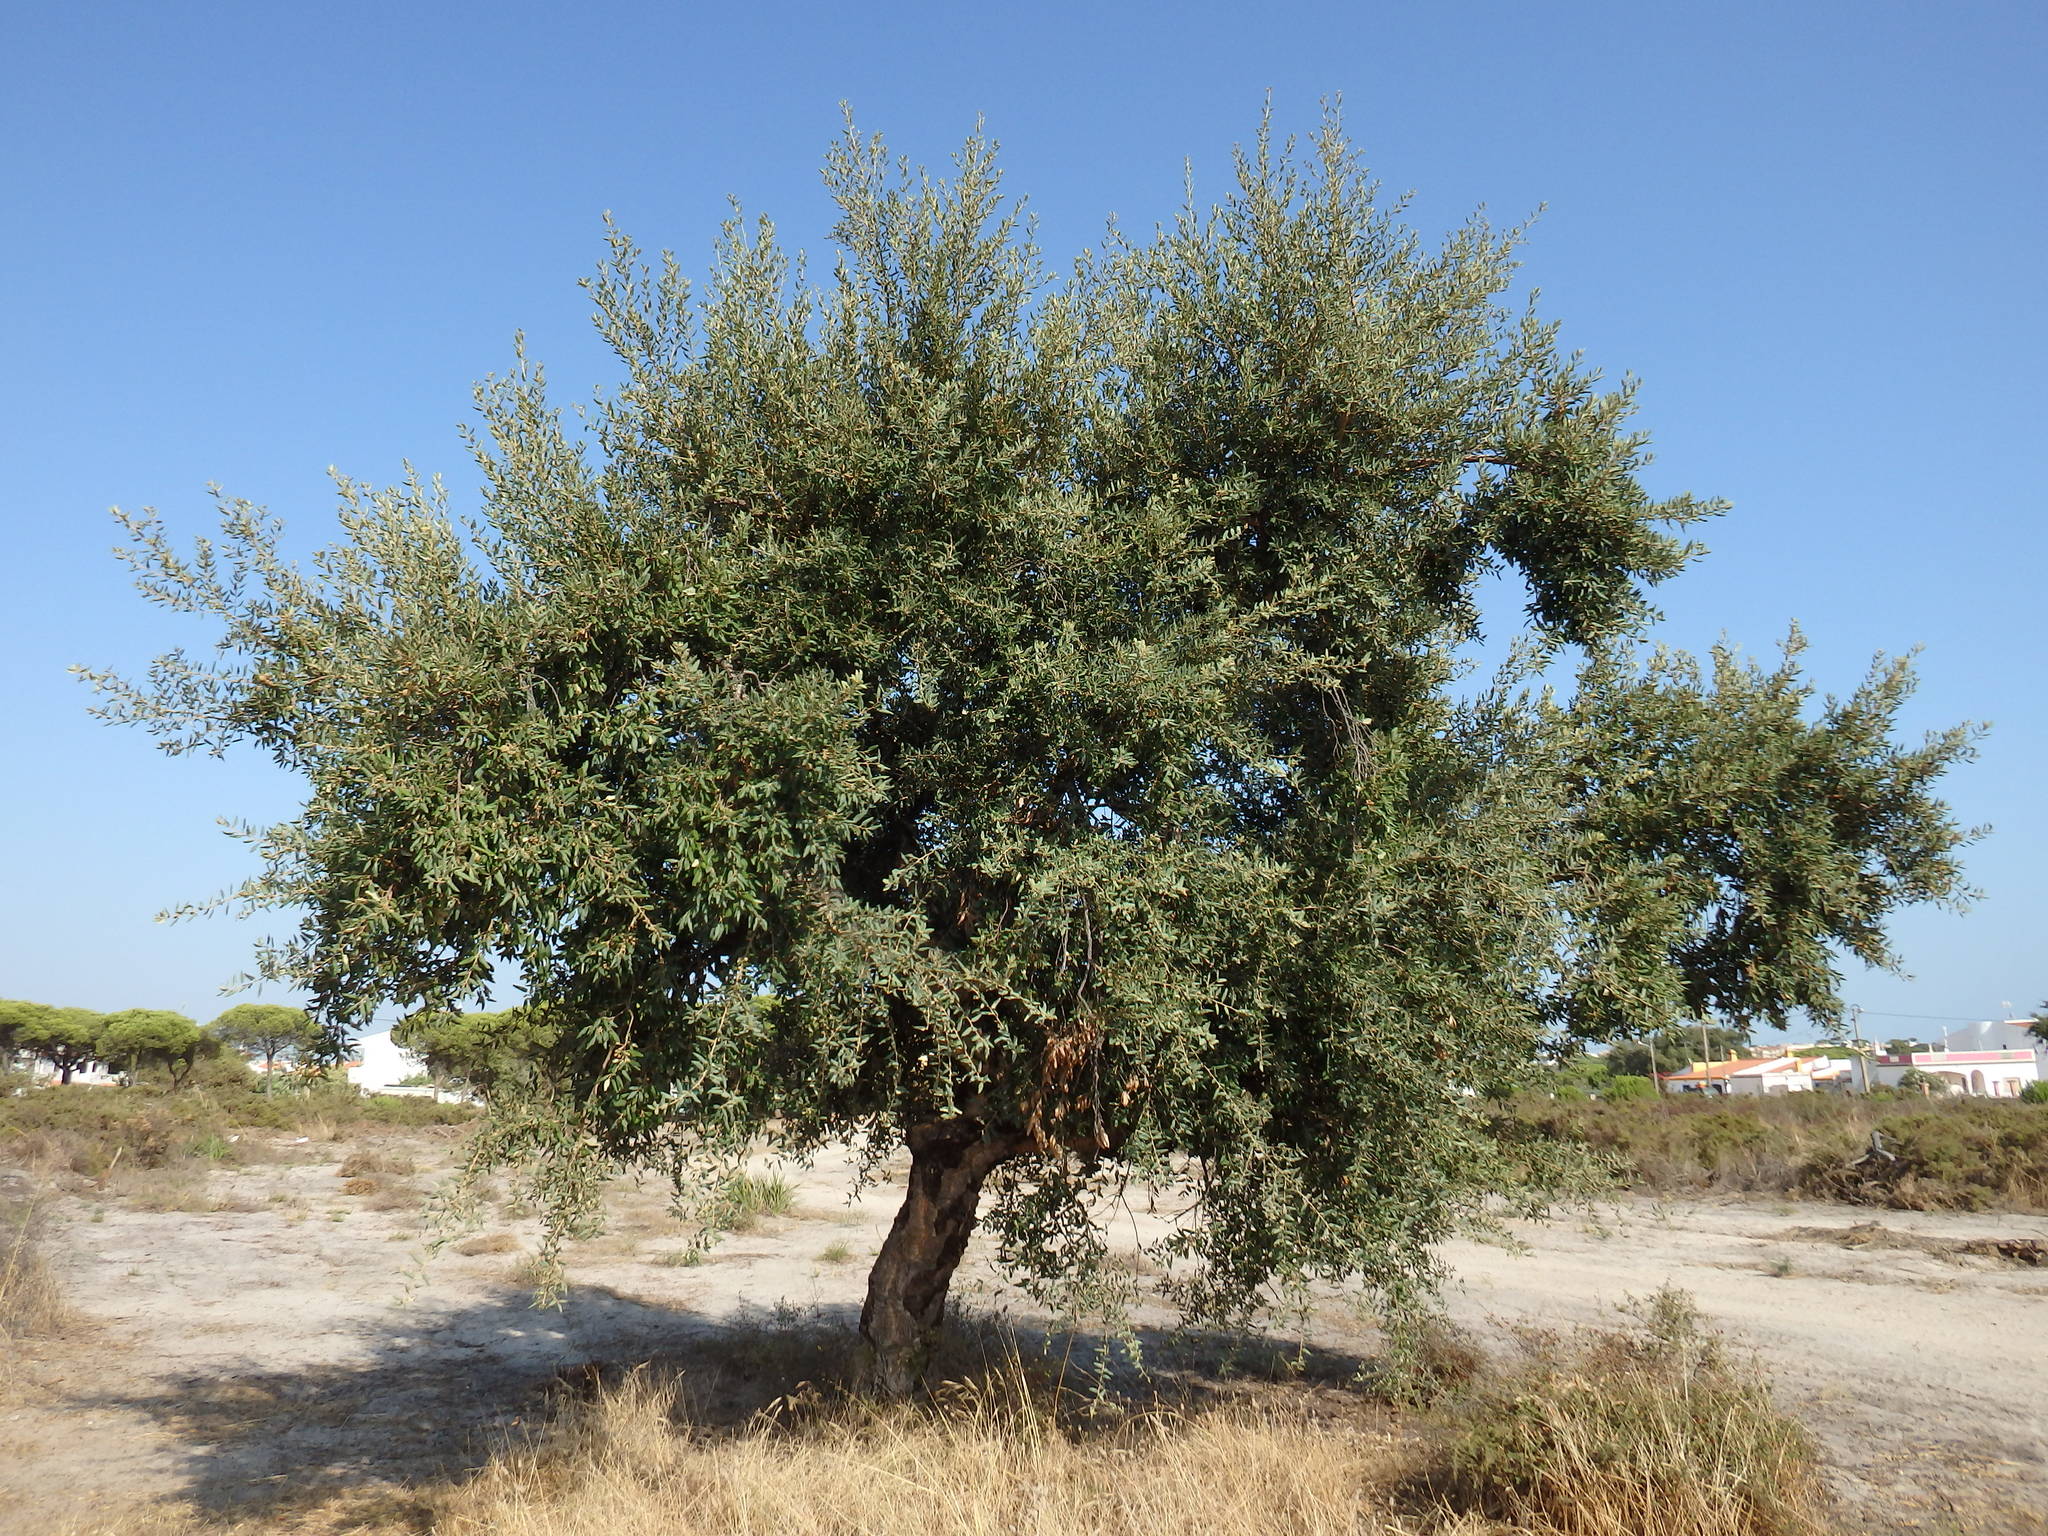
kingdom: Plantae
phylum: Tracheophyta
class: Magnoliopsida
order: Fagales
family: Fagaceae
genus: Quercus
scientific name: Quercus suber
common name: Cork oak
